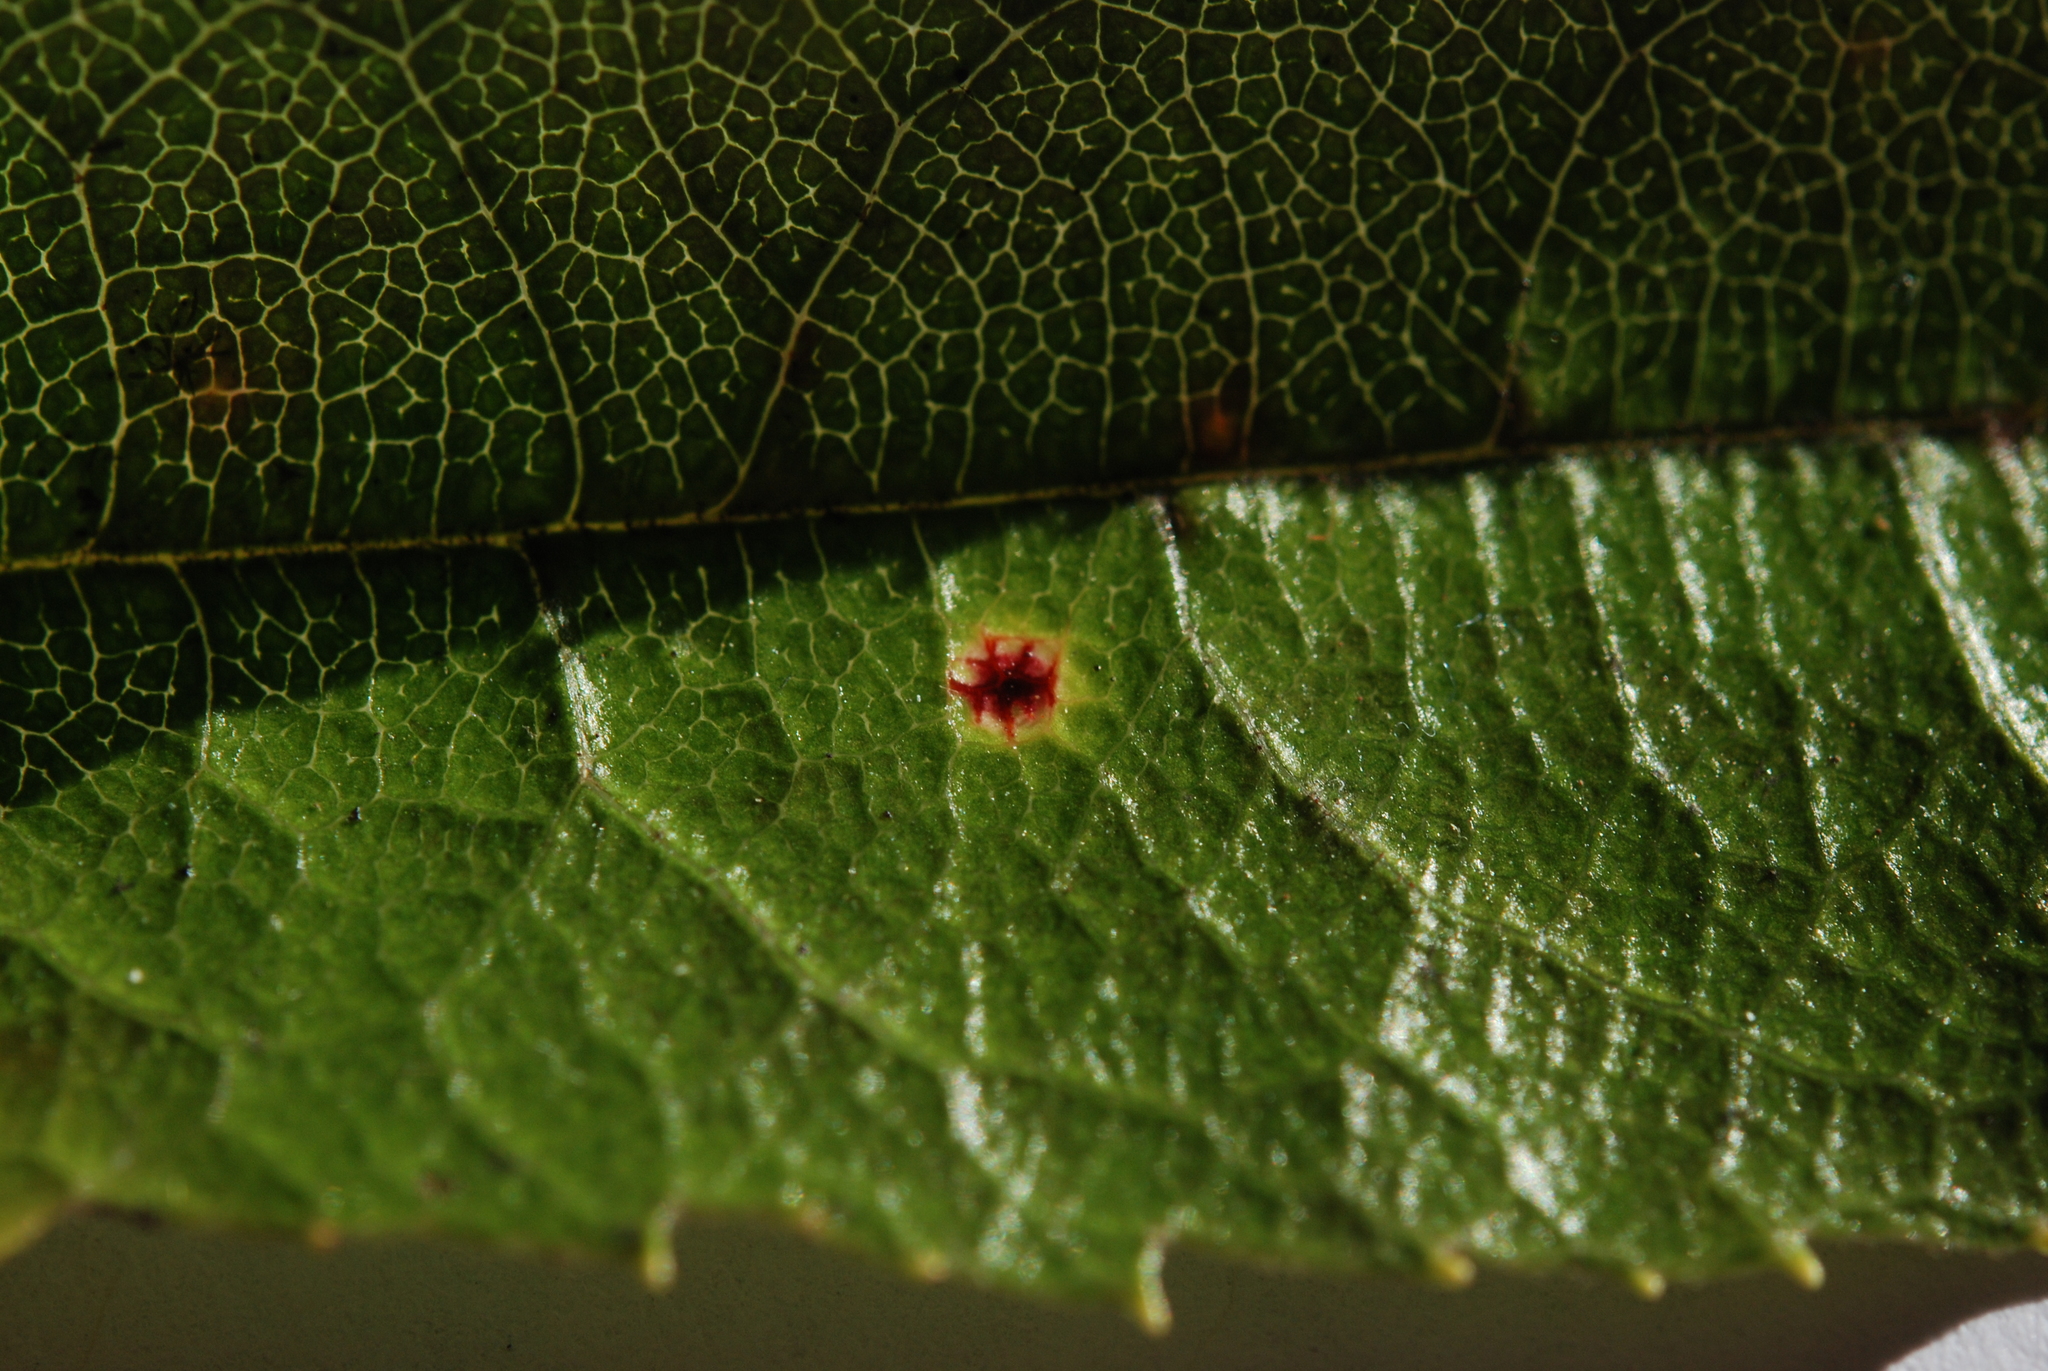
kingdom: Fungi
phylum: Basidiomycota
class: Pucciniomycetes
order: Pucciniales
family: Phragmidiaceae
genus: Hamaspora
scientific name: Hamaspora australis
